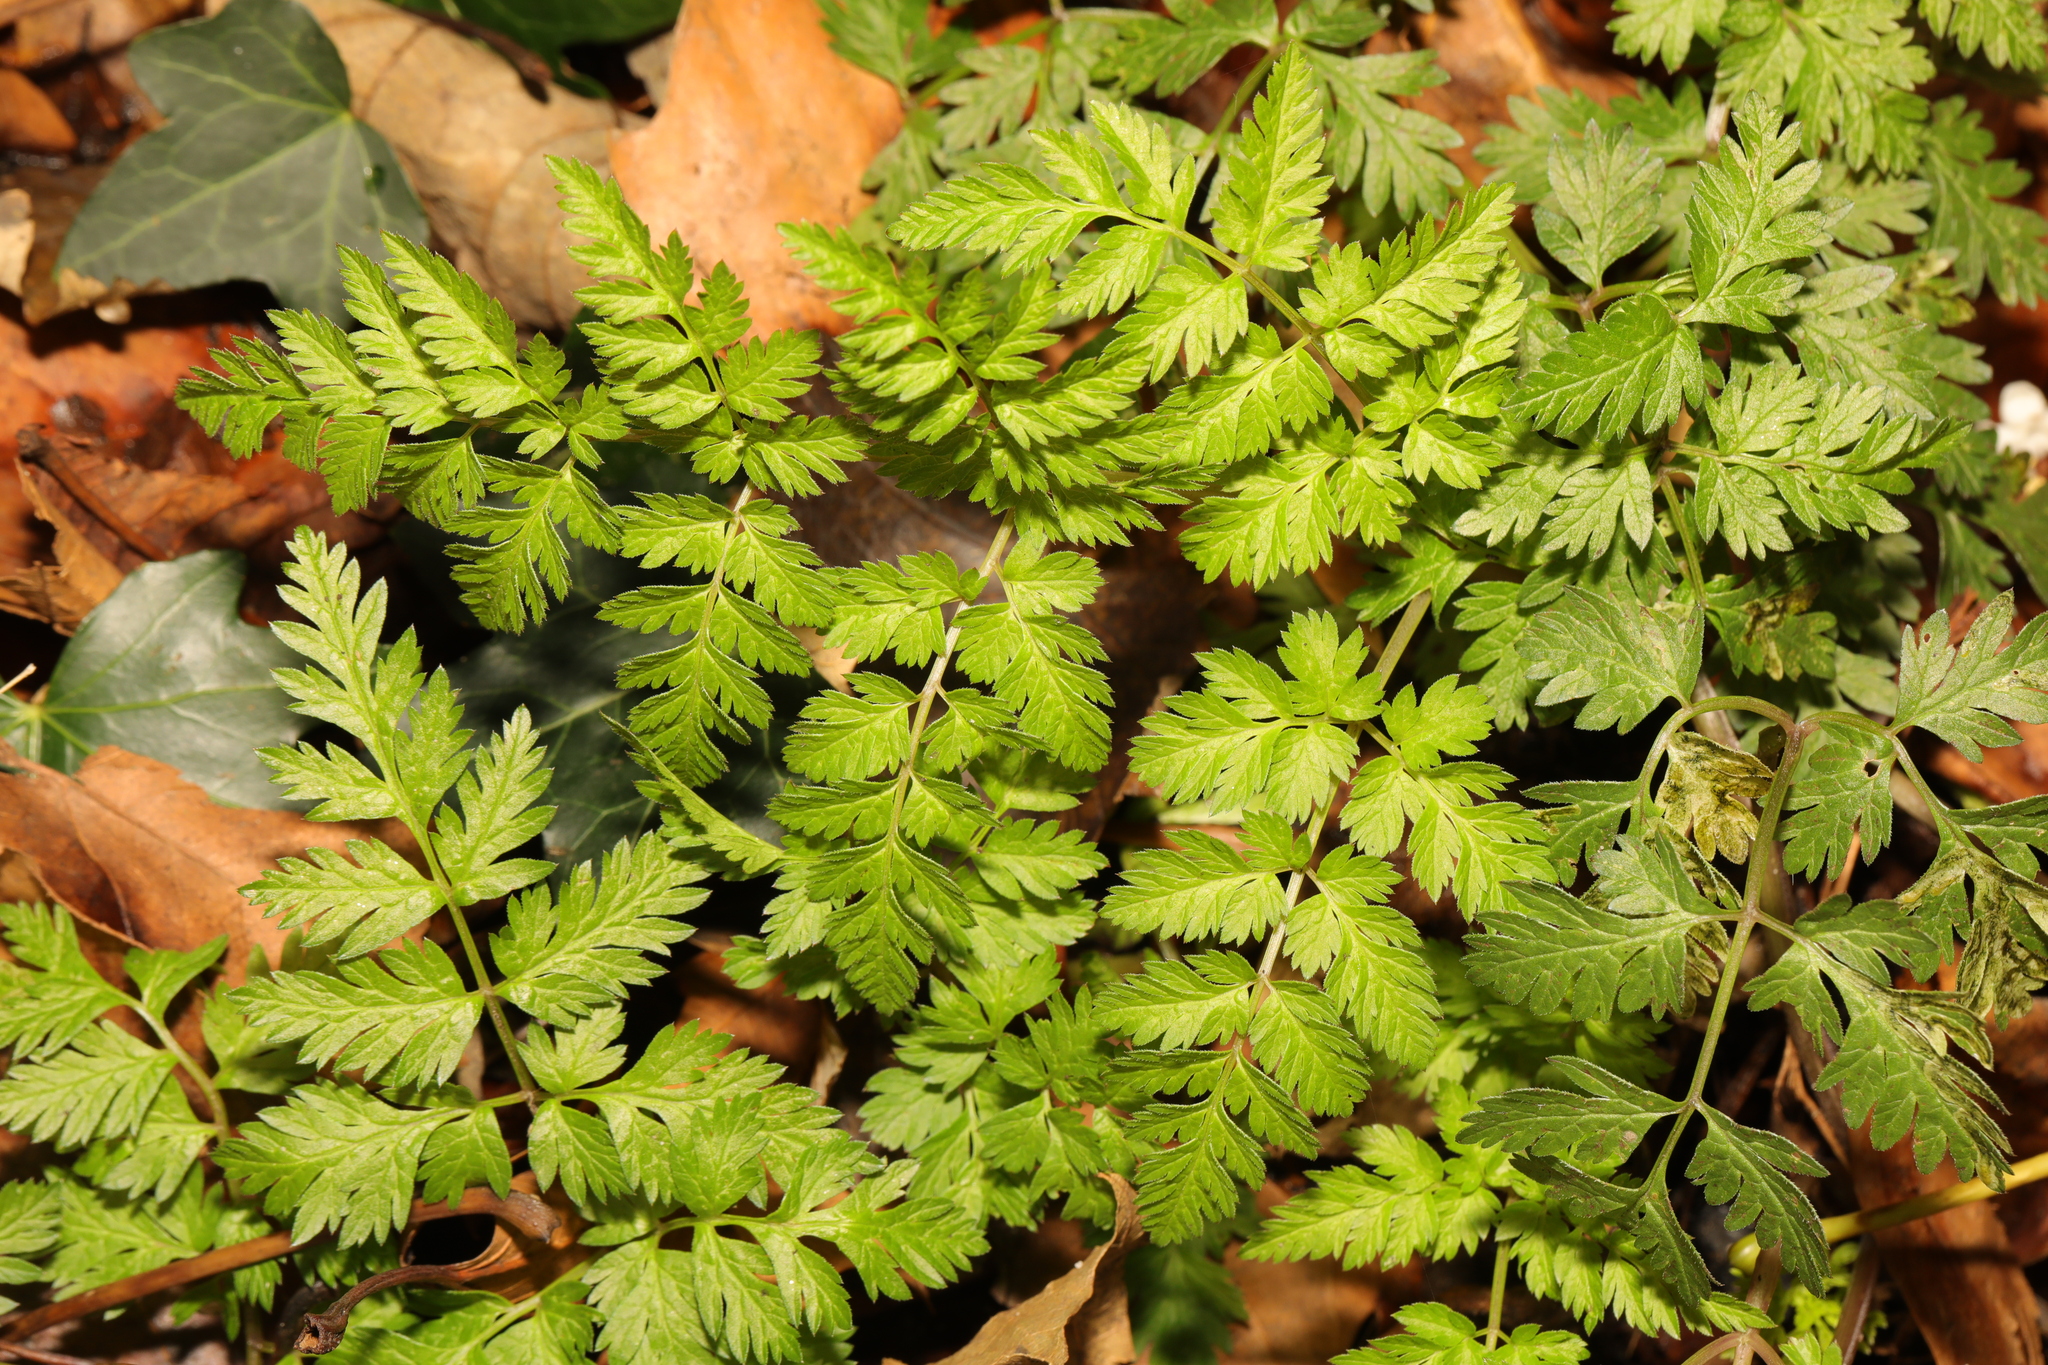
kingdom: Plantae
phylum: Tracheophyta
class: Magnoliopsida
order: Apiales
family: Apiaceae
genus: Anthriscus
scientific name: Anthriscus sylvestris
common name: Cow parsley
